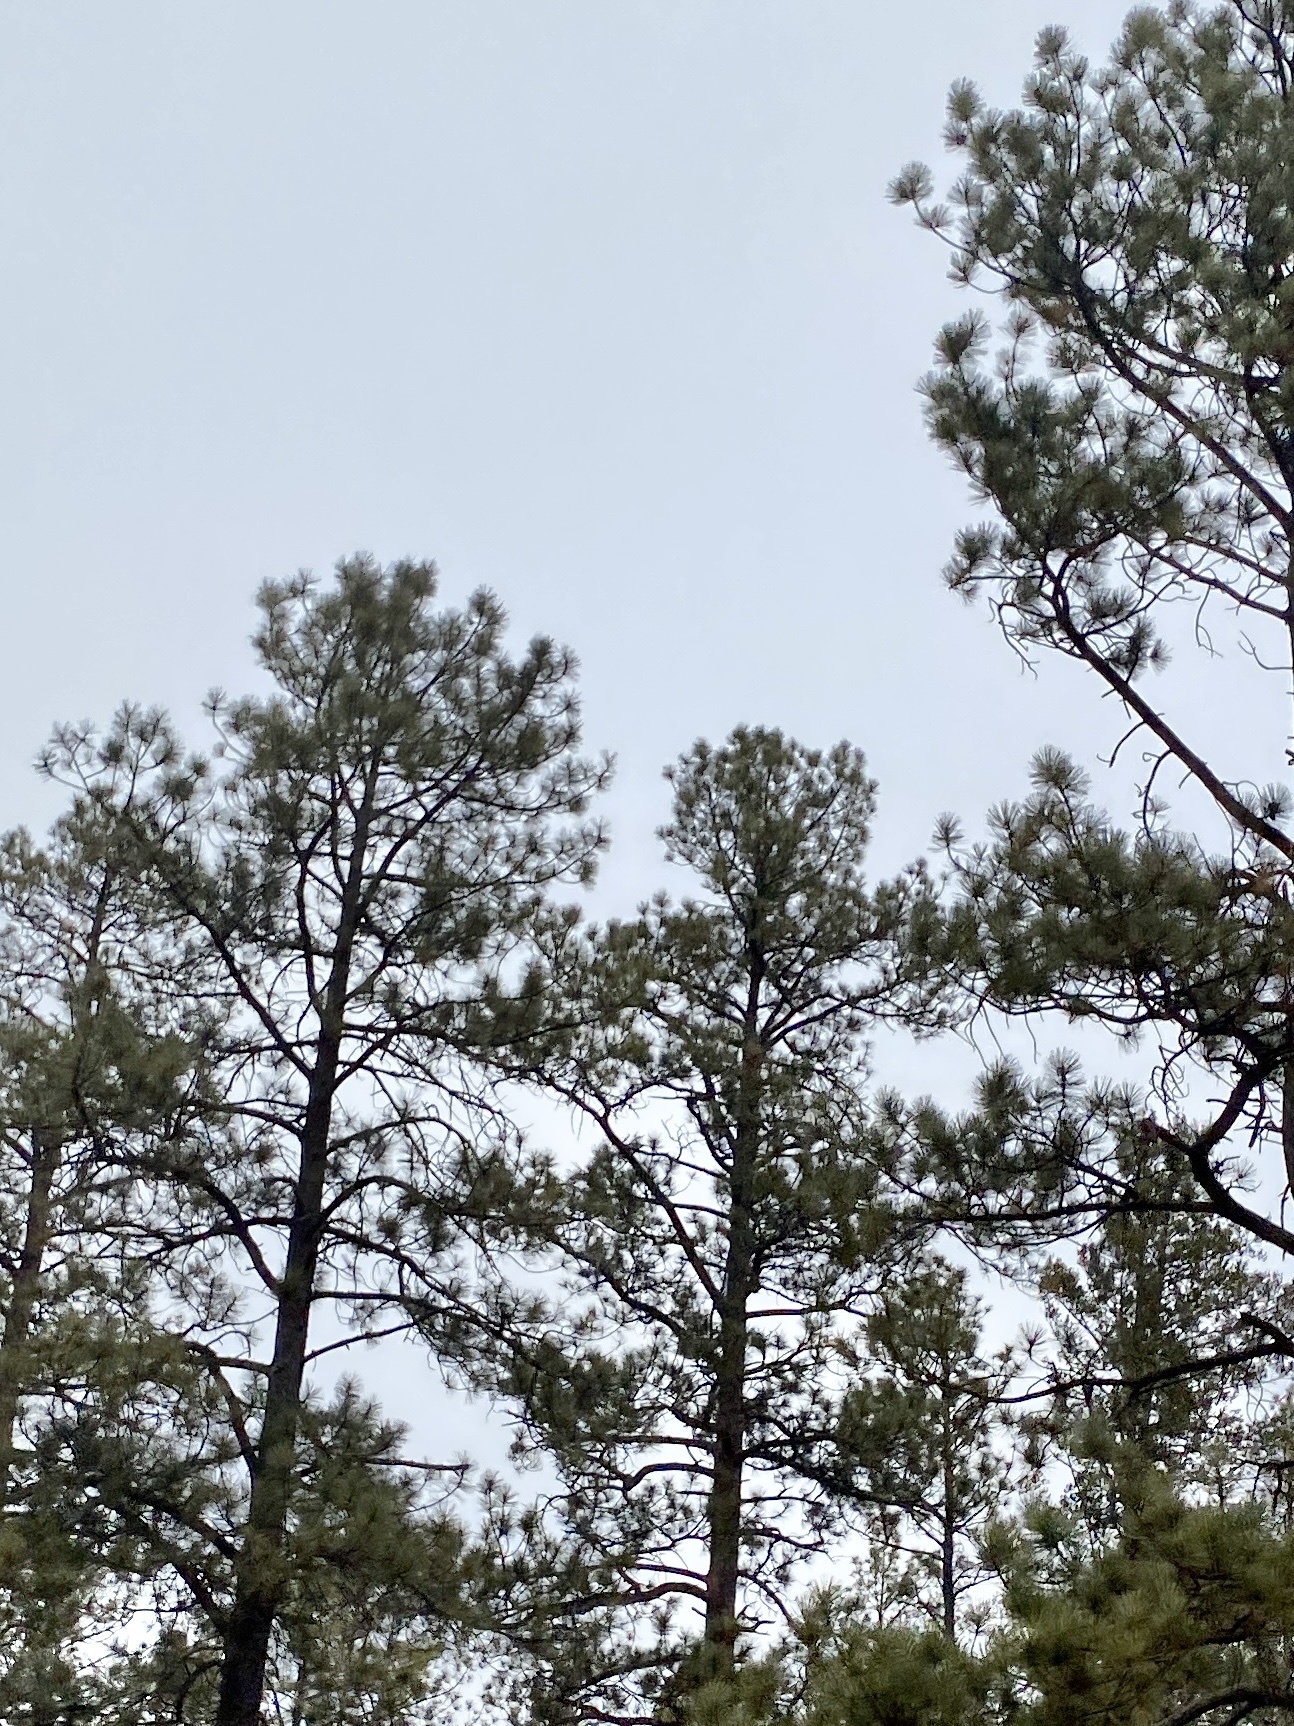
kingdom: Plantae
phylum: Tracheophyta
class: Pinopsida
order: Pinales
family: Pinaceae
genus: Pinus
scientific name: Pinus ponderosa
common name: Western yellow-pine
